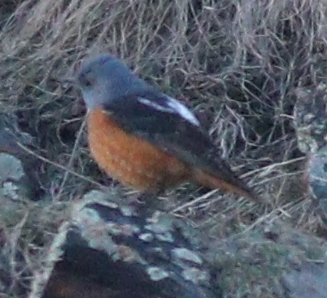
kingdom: Animalia
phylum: Chordata
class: Aves
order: Passeriformes
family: Muscicapidae
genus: Monticola
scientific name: Monticola saxatilis
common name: Rufous-tailed rock thrush
